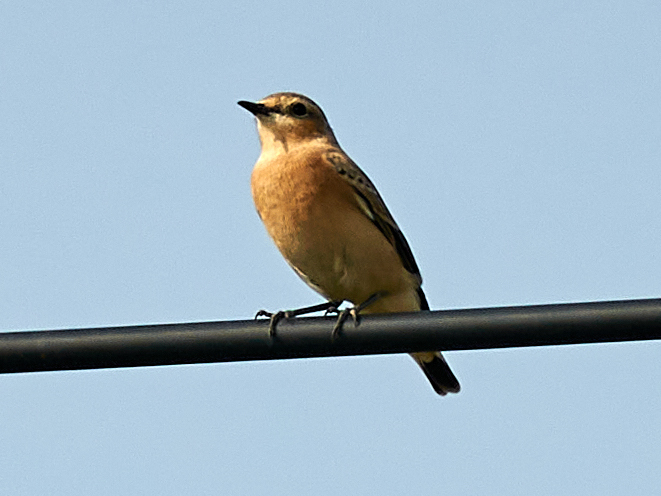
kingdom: Animalia
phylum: Chordata
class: Aves
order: Passeriformes
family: Muscicapidae
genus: Saxicola
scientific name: Saxicola rubetra
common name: Whinchat
